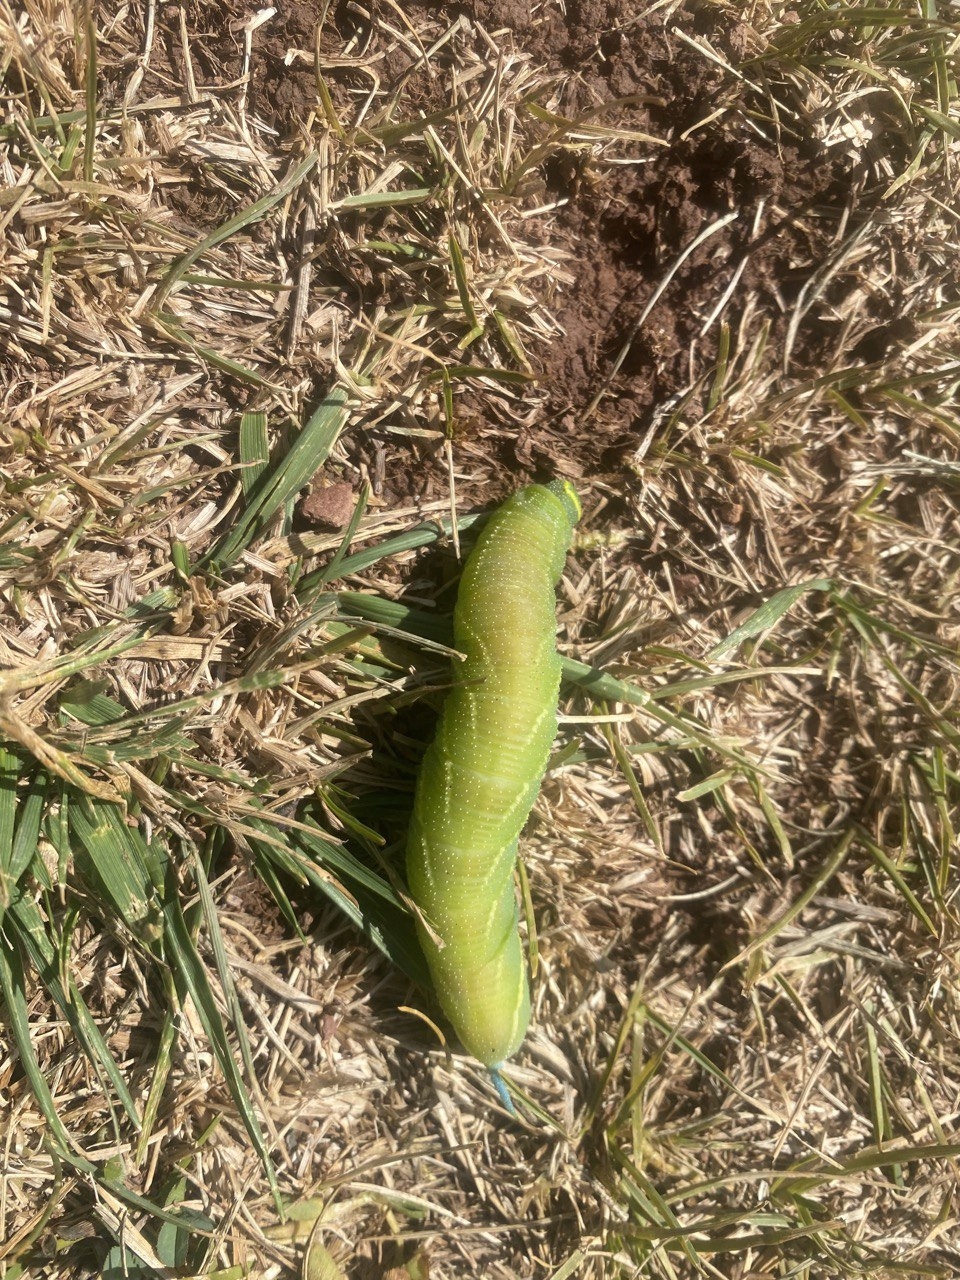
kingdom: Animalia
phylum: Arthropoda
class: Insecta
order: Lepidoptera
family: Sphingidae
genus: Smerinthus
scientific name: Smerinthus ocellata
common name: Eyed hawk-moth
